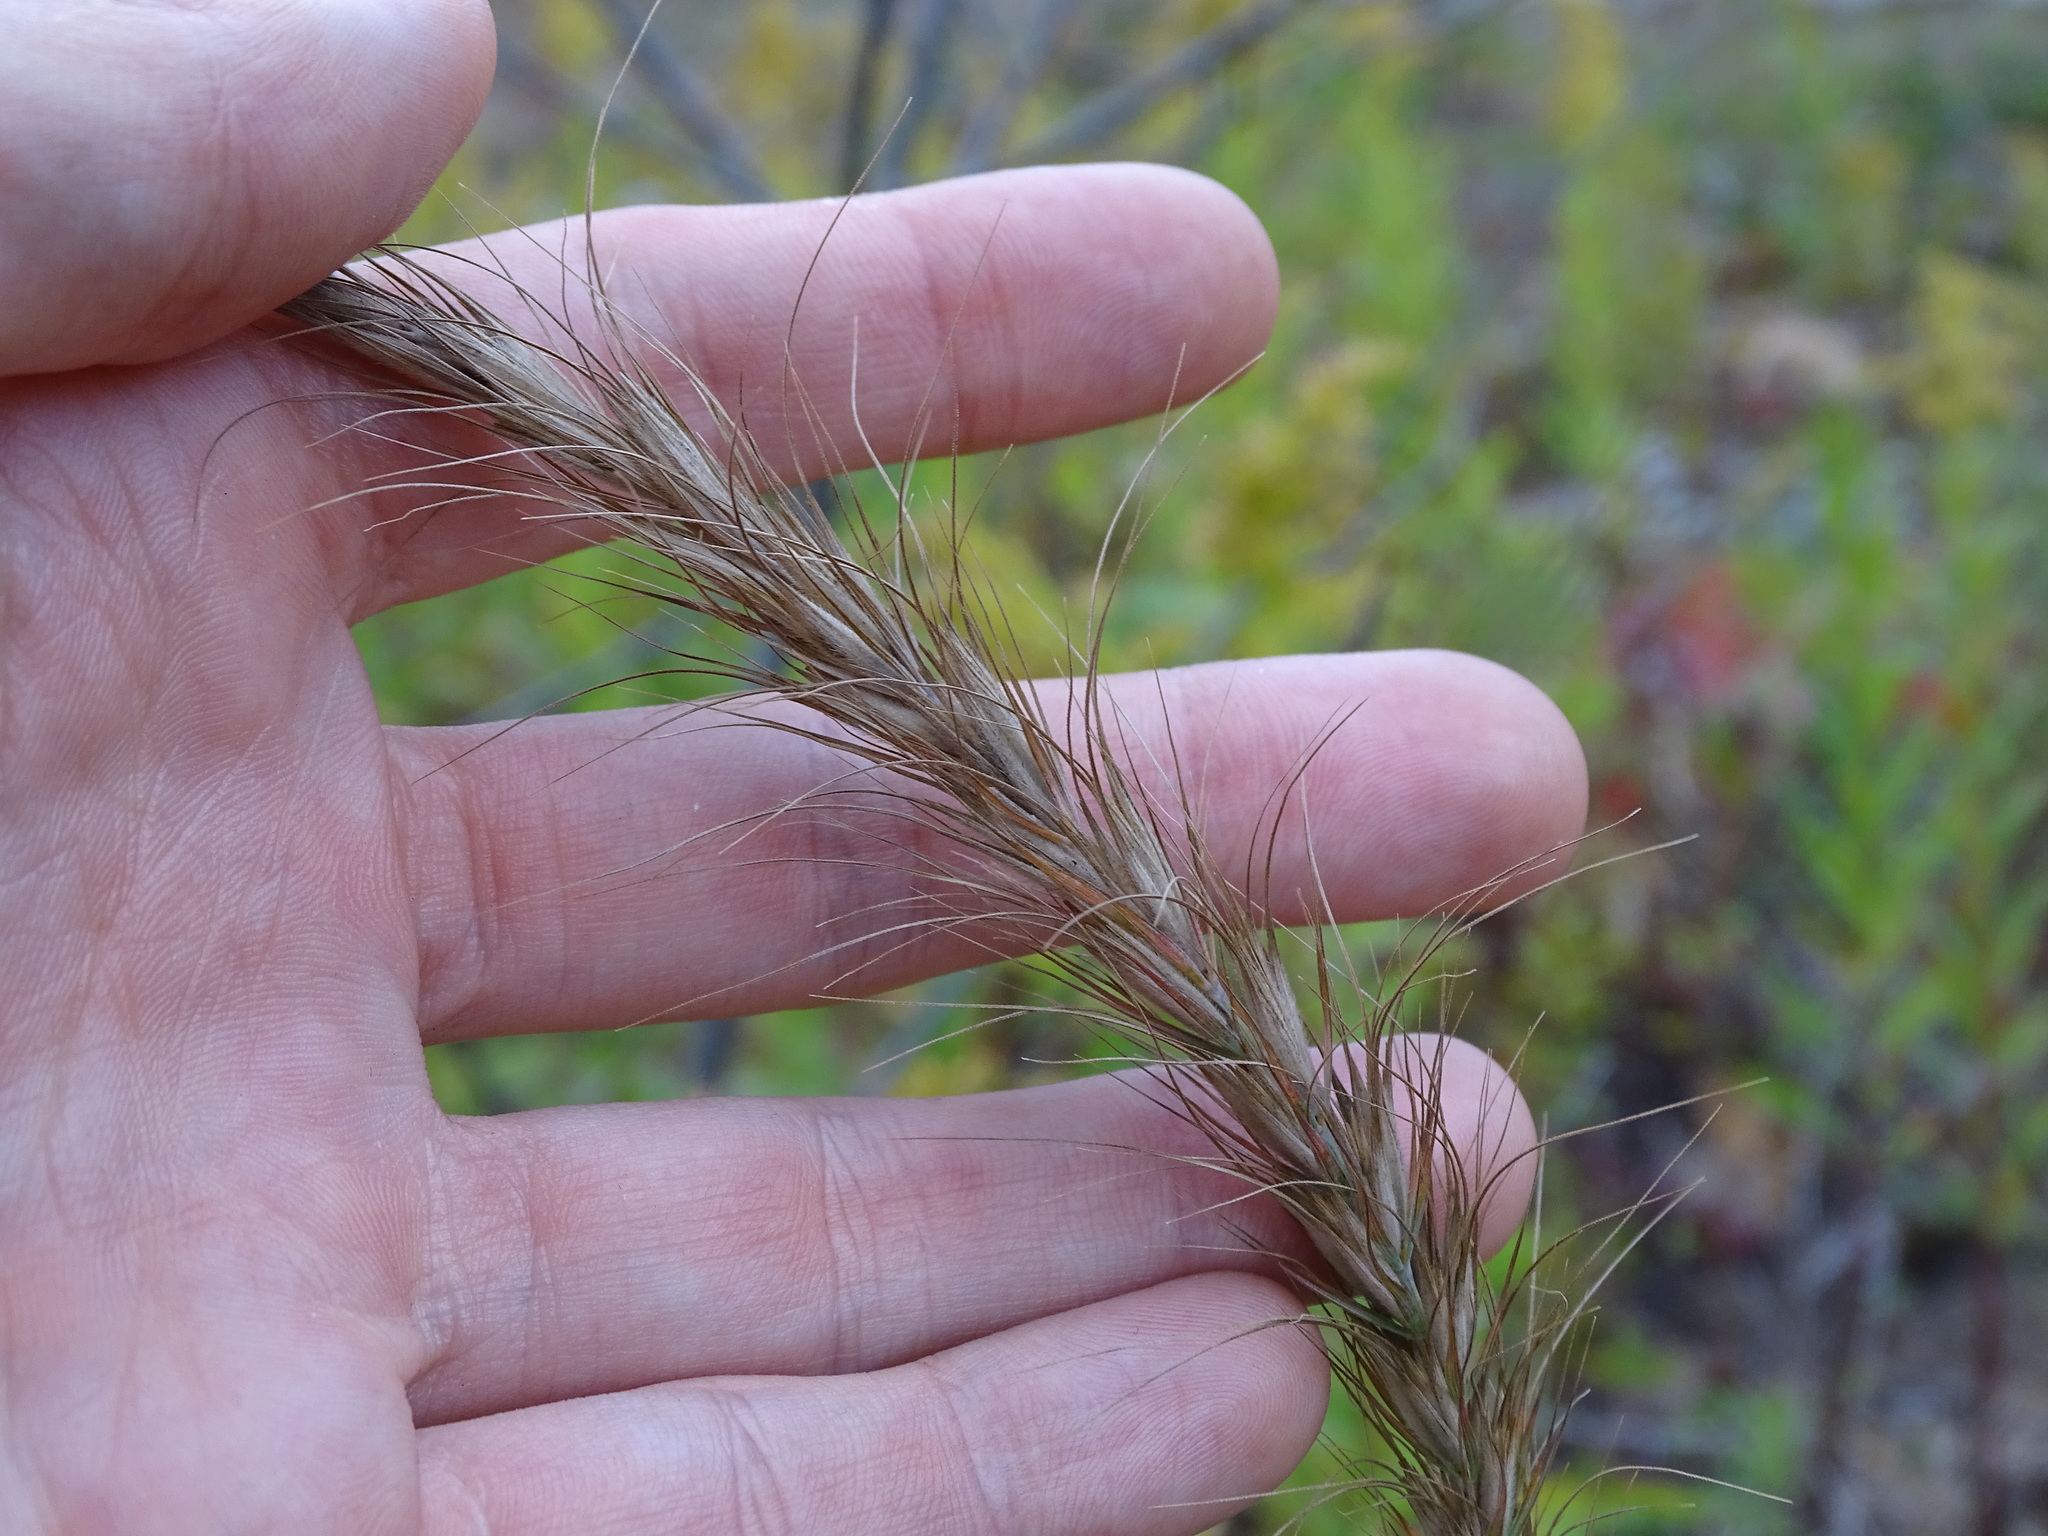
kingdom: Plantae
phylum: Tracheophyta
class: Liliopsida
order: Poales
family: Poaceae
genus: Elymus
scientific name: Elymus canadensis
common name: Canada wild rye
